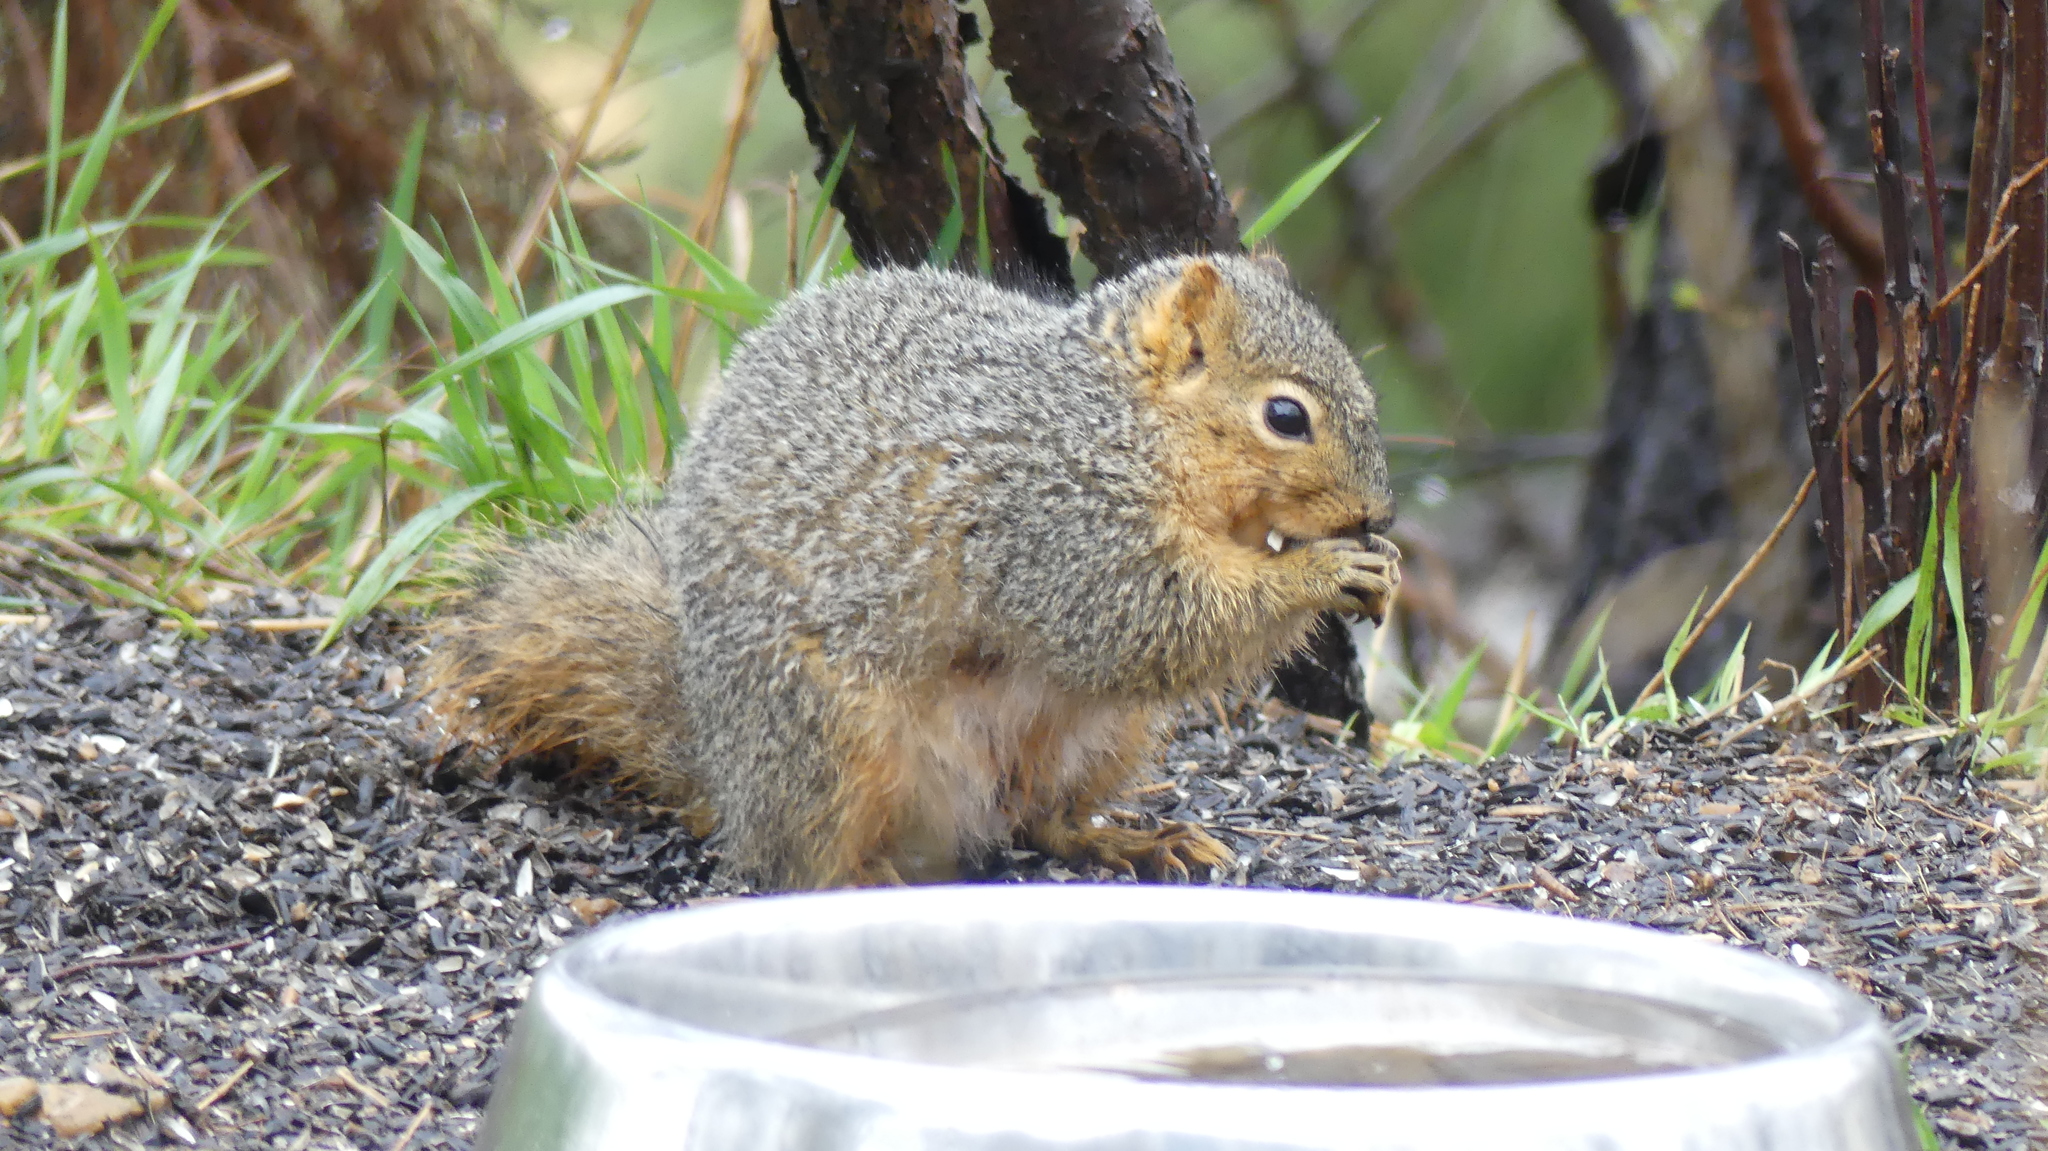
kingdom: Animalia
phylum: Chordata
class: Mammalia
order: Rodentia
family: Sciuridae
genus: Sciurus
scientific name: Sciurus niger
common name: Fox squirrel
